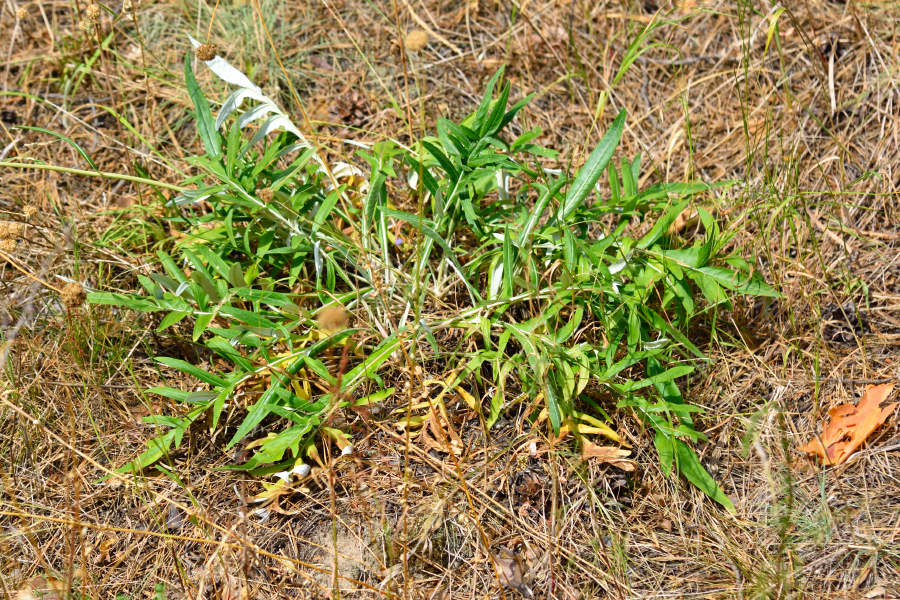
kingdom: Plantae
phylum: Tracheophyta
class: Magnoliopsida
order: Asterales
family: Asteraceae
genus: Jurinea
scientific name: Jurinea cyanoides
